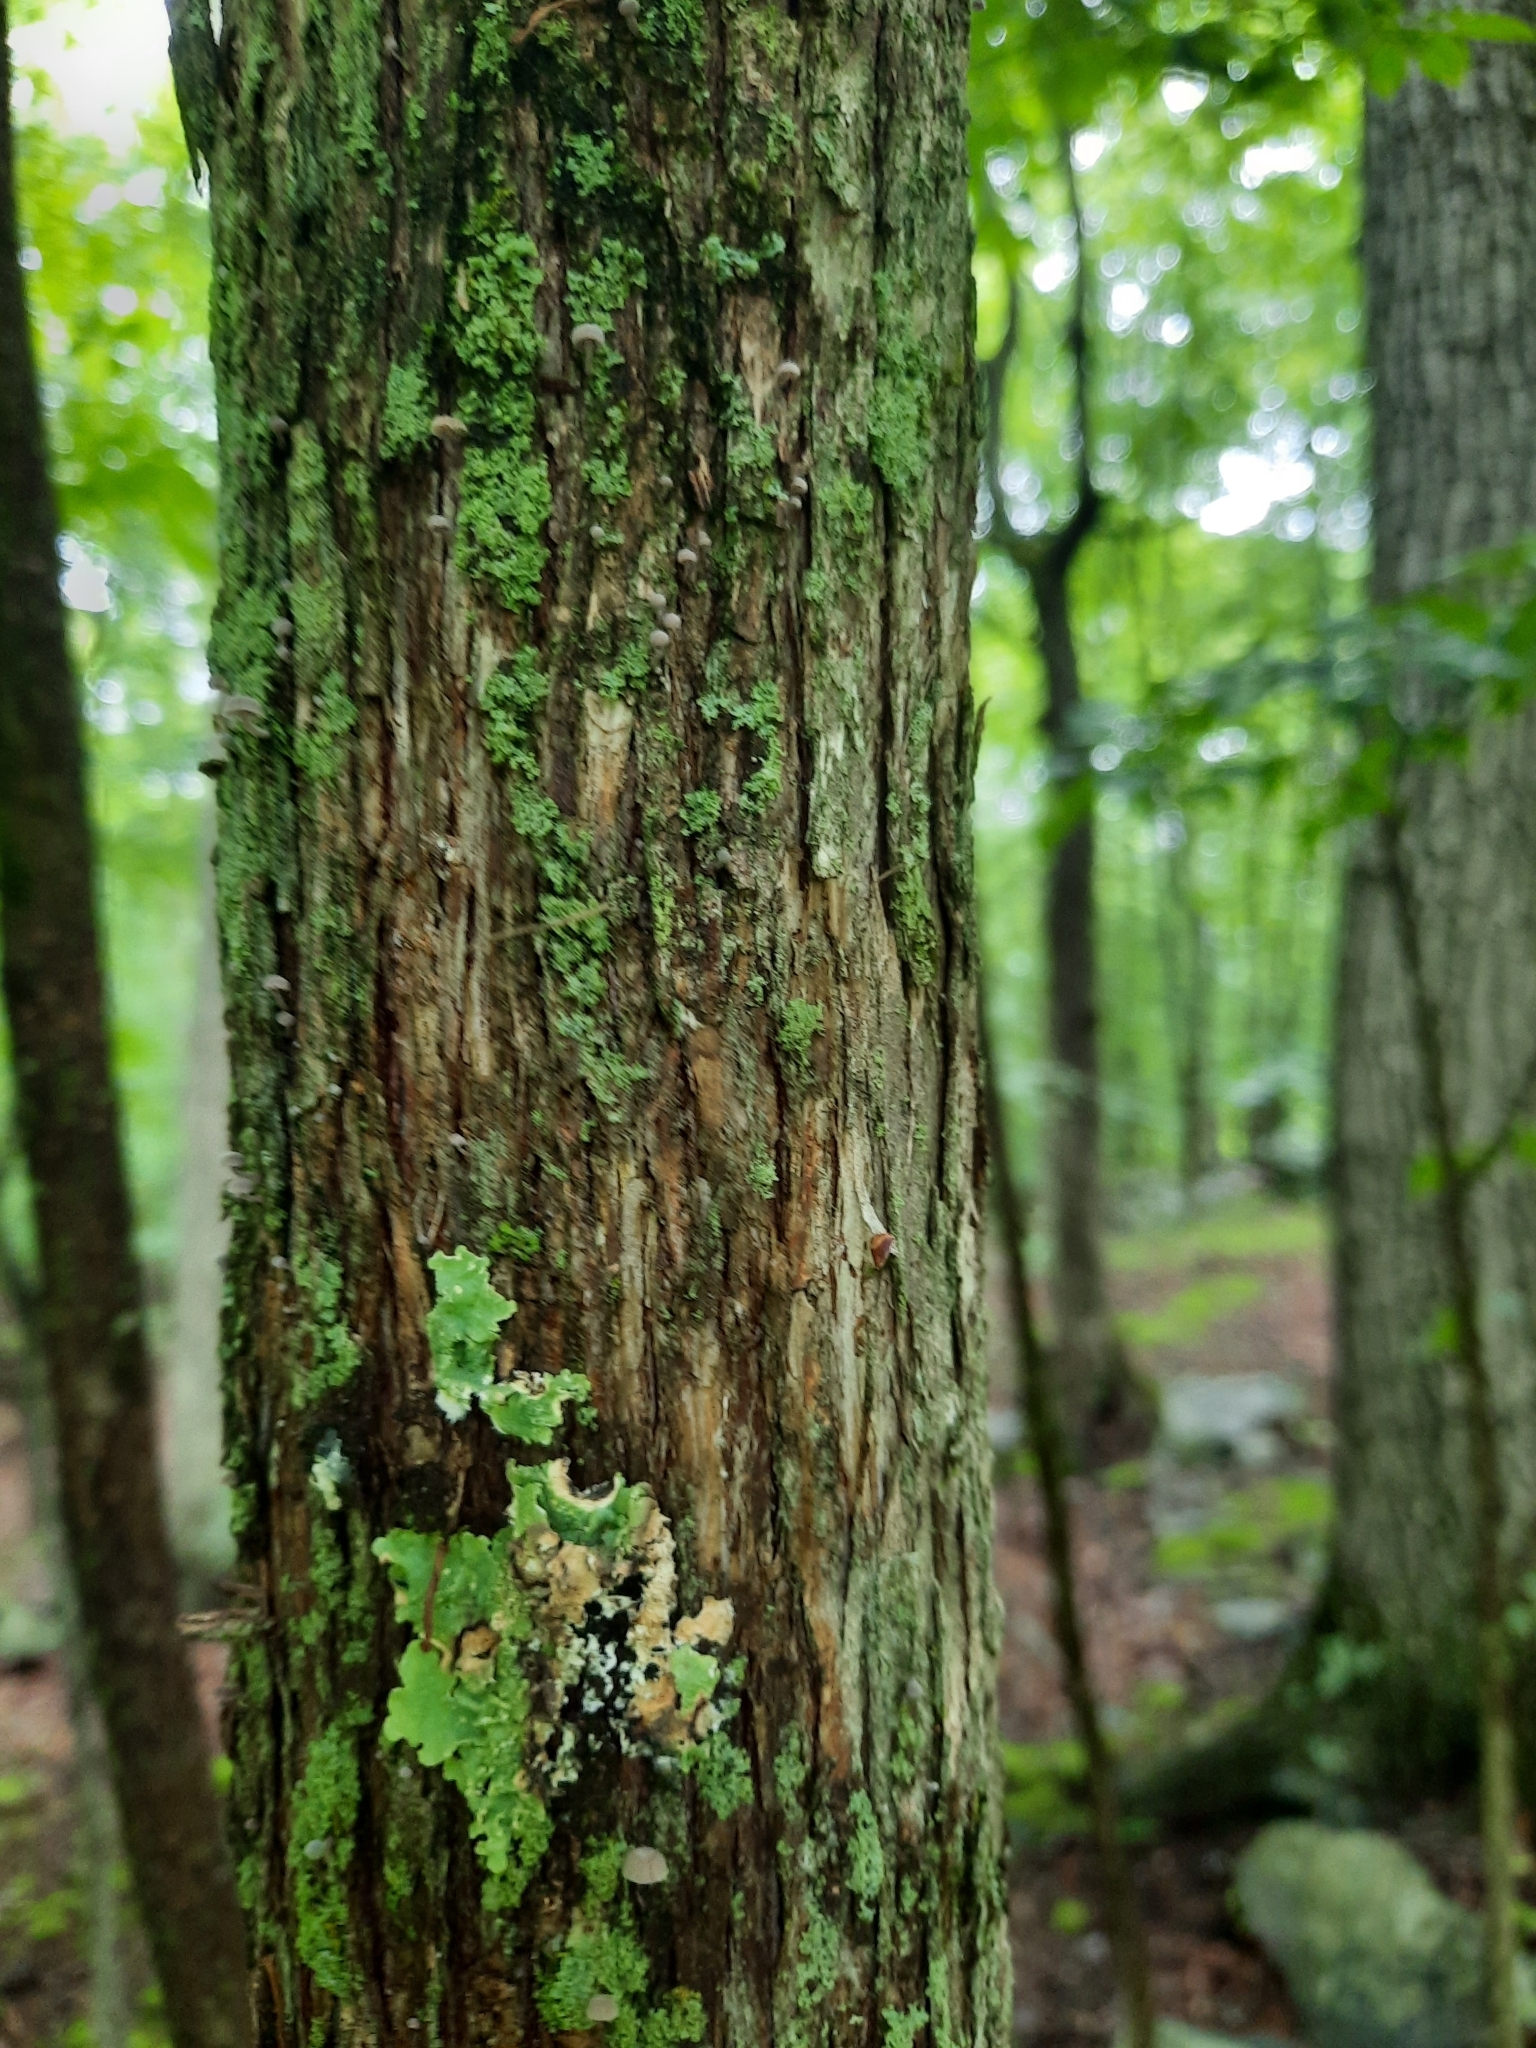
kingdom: Plantae
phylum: Tracheophyta
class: Magnoliopsida
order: Fagales
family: Betulaceae
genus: Ostrya
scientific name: Ostrya virginiana
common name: Ironwood
